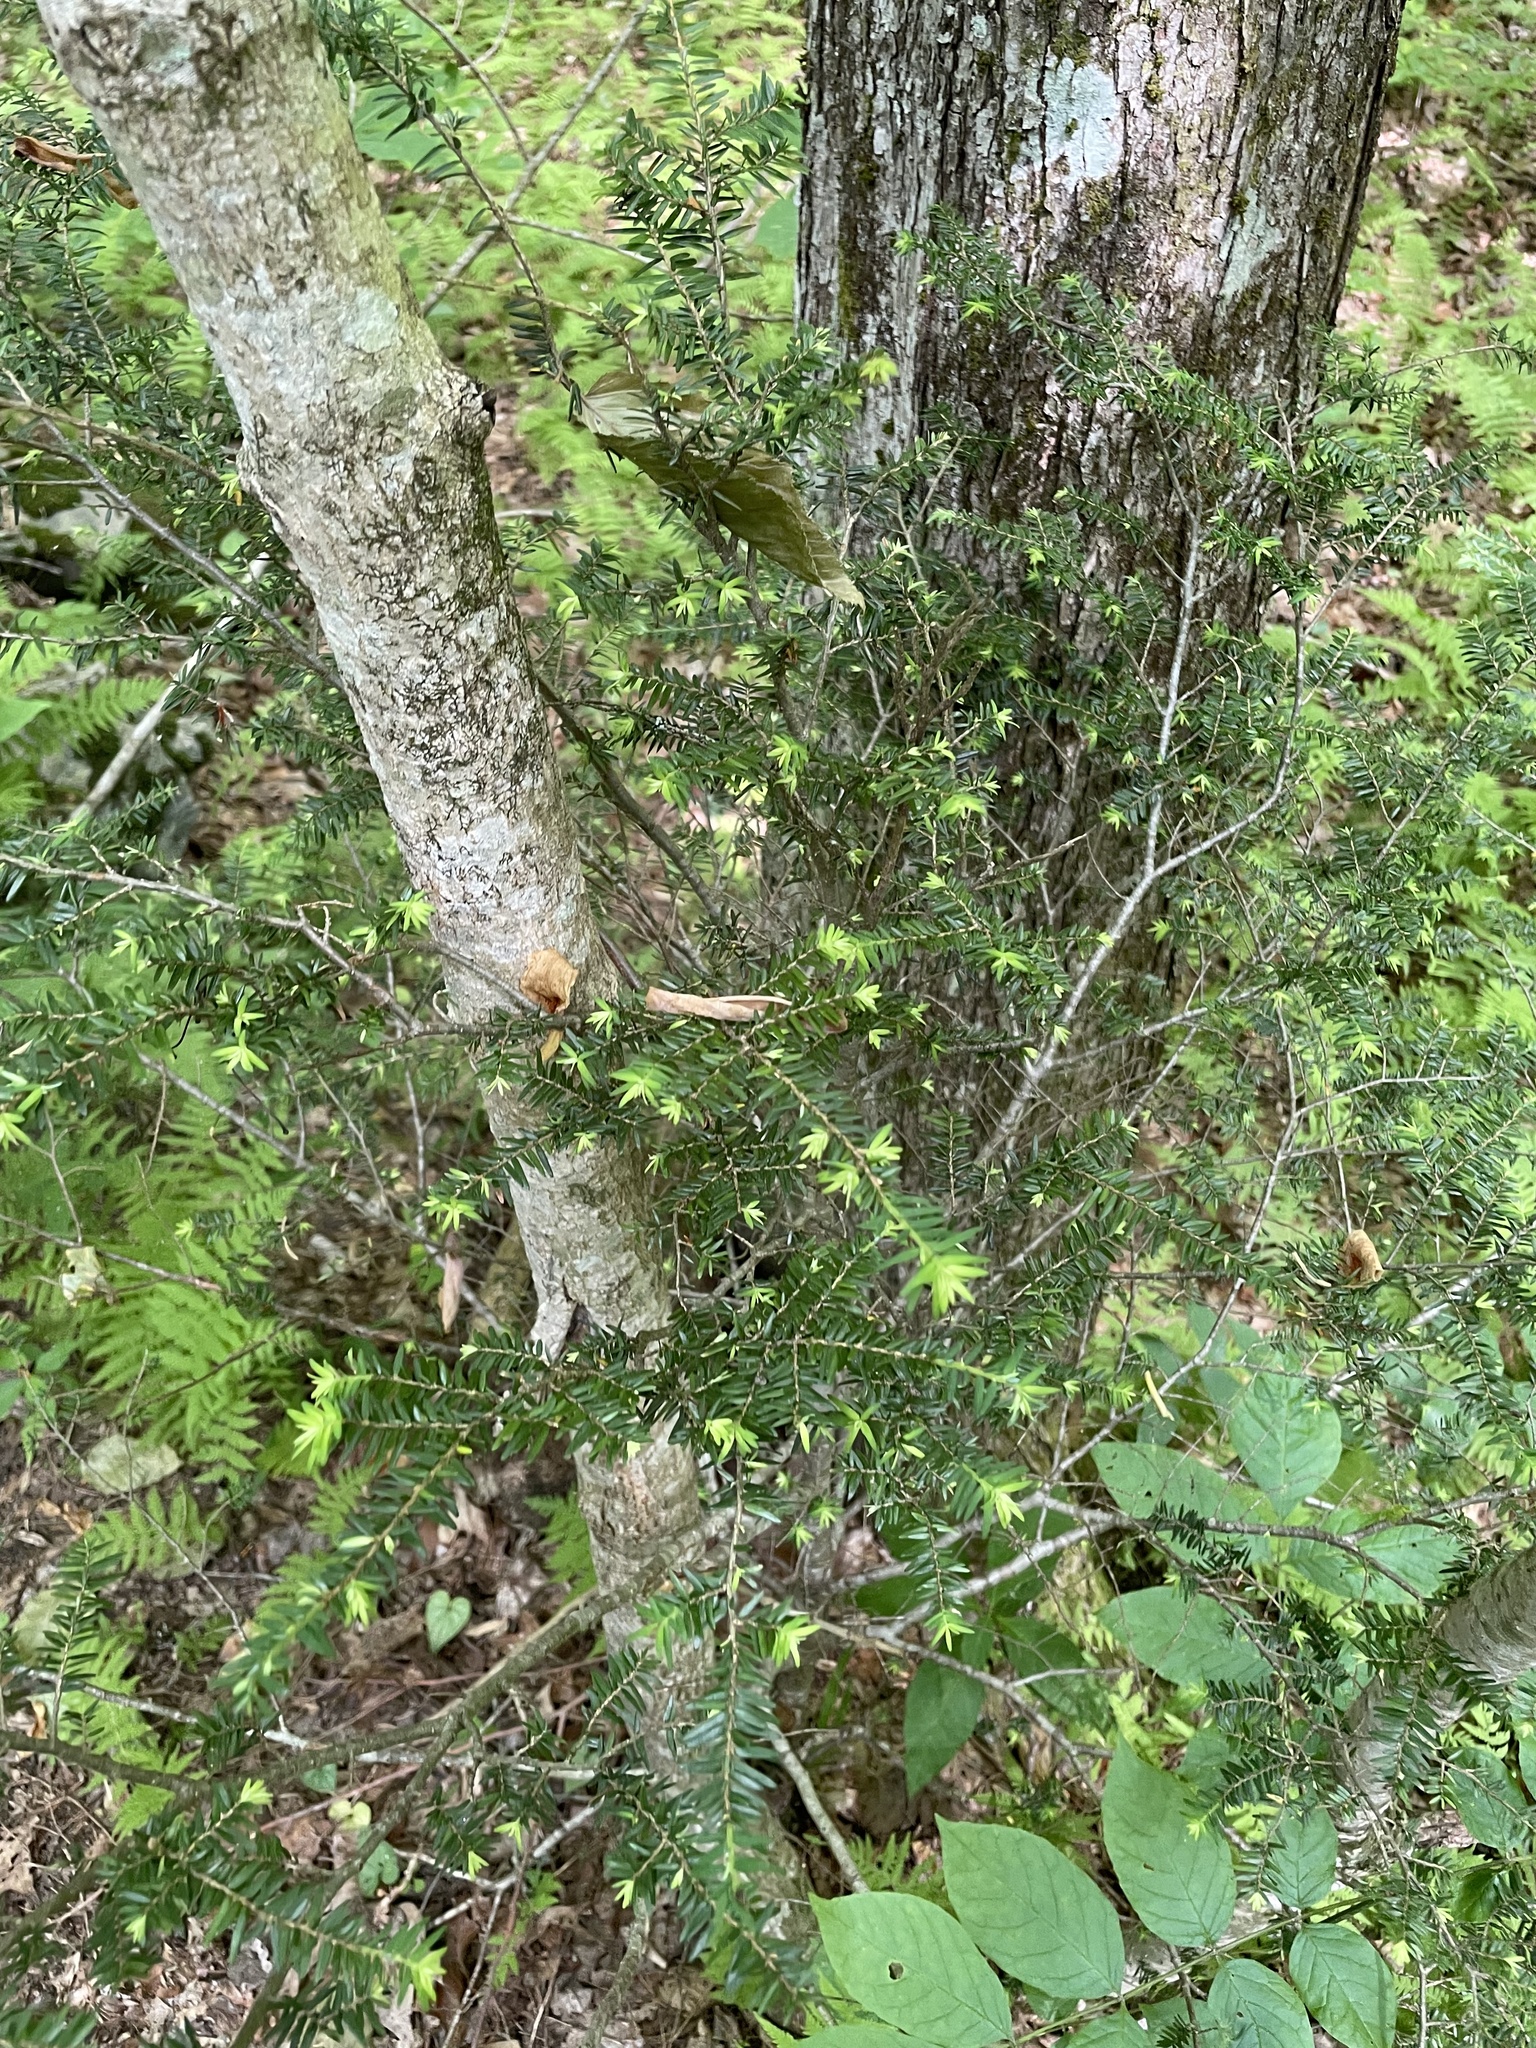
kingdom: Plantae
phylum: Tracheophyta
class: Pinopsida
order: Pinales
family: Pinaceae
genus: Tsuga
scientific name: Tsuga canadensis
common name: Eastern hemlock
